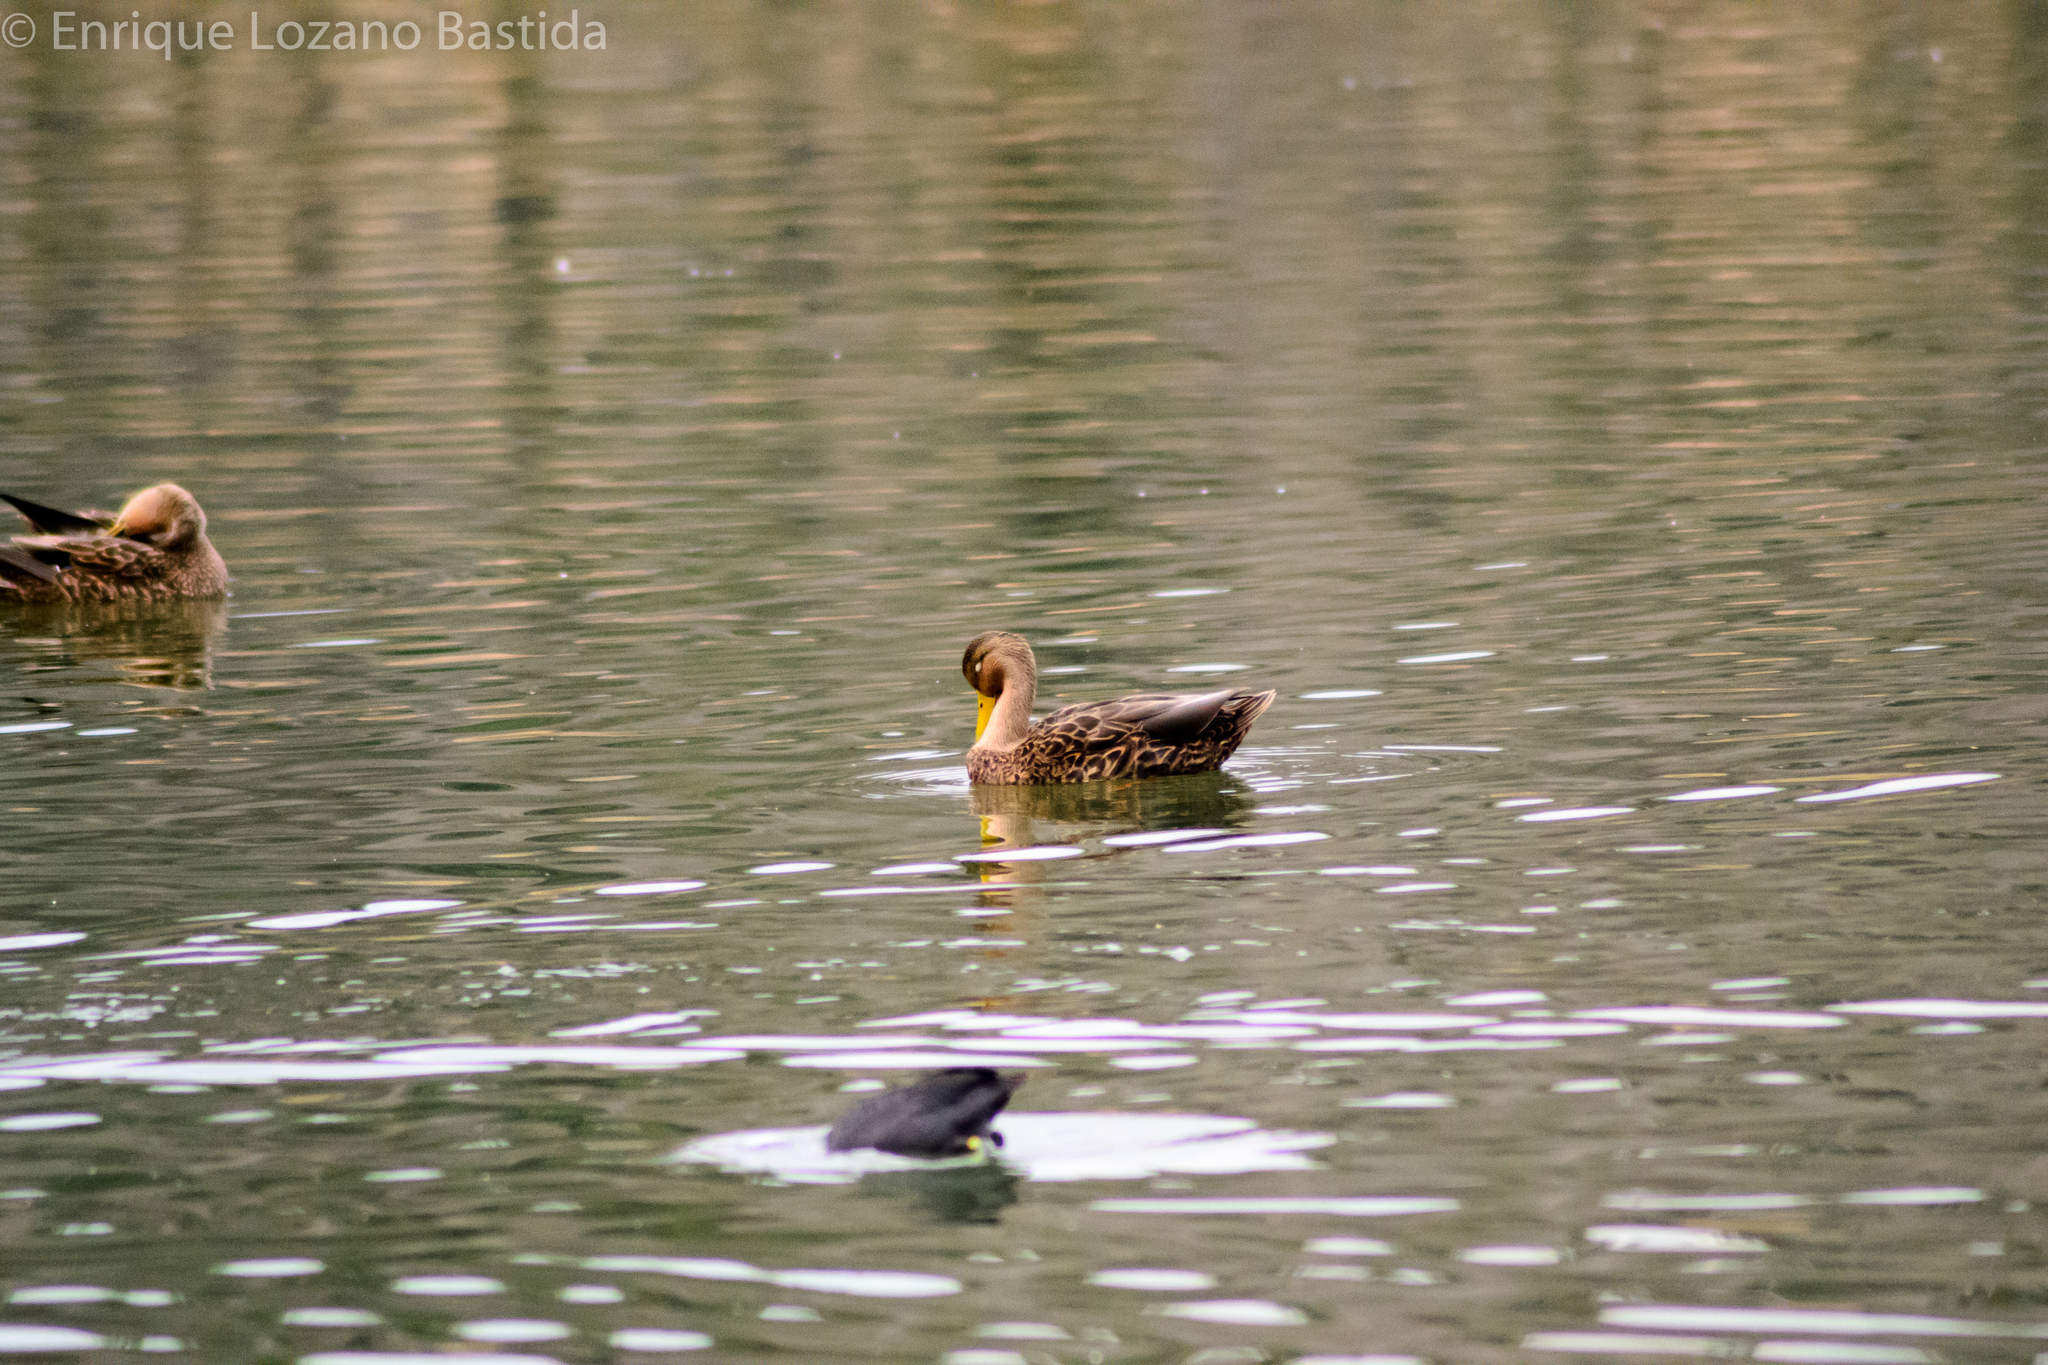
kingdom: Animalia
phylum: Chordata
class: Aves
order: Anseriformes
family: Anatidae
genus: Anas
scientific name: Anas diazi
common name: Mexican duck
